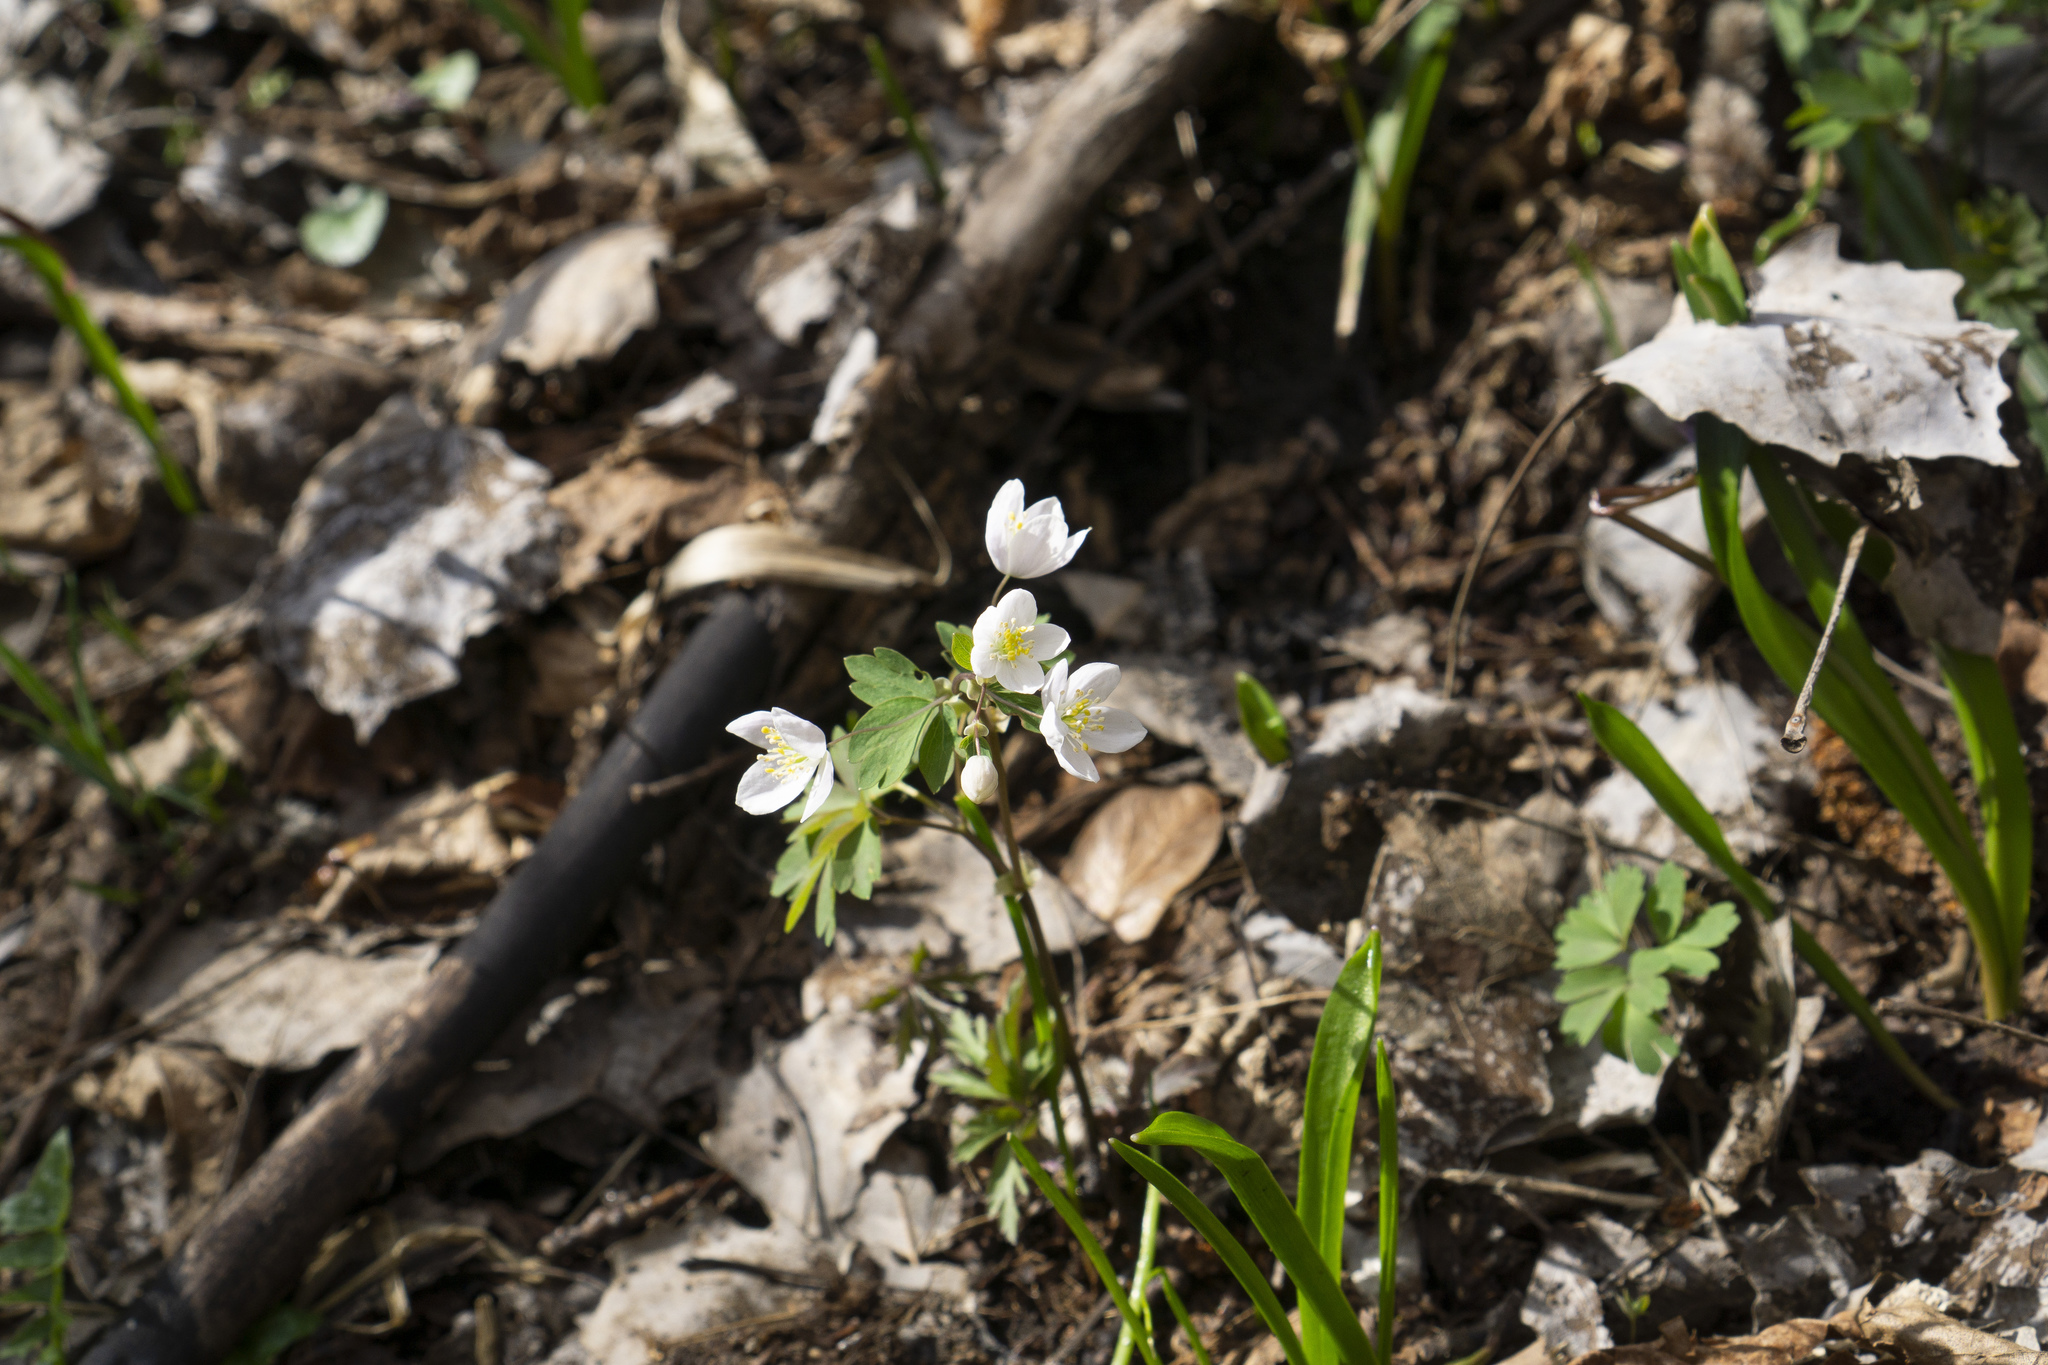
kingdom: Plantae
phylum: Tracheophyta
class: Magnoliopsida
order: Ranunculales
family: Ranunculaceae
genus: Isopyrum
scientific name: Isopyrum thalictroides
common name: Isopyrum
